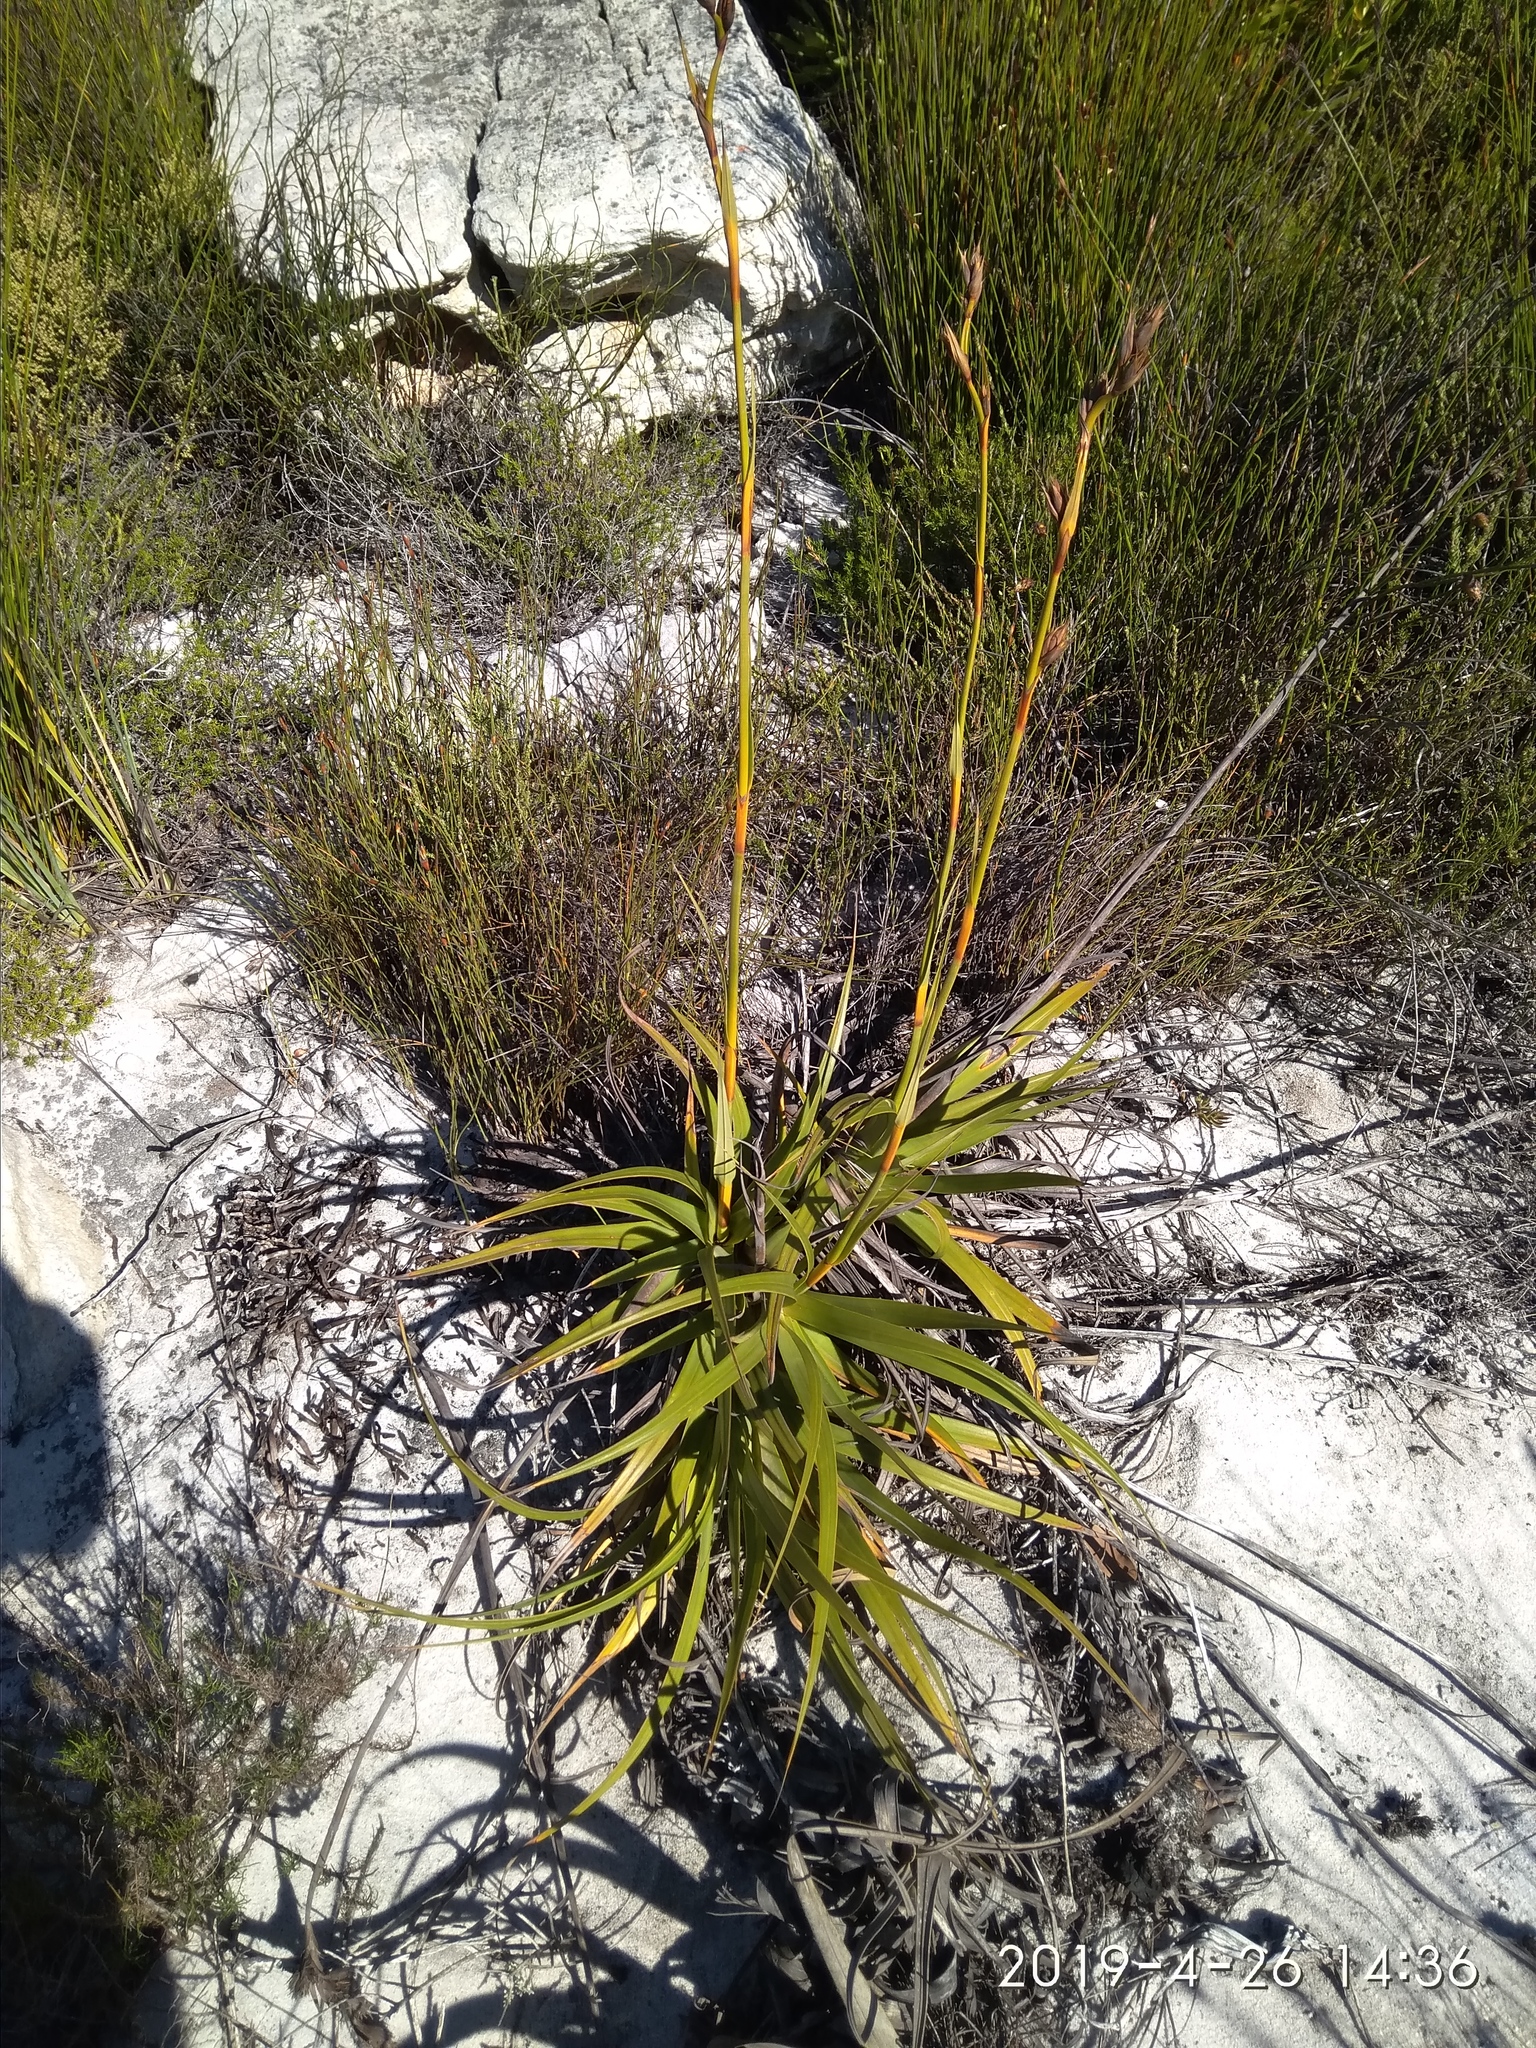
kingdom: Plantae
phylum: Tracheophyta
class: Liliopsida
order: Poales
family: Cyperaceae
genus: Tetraria
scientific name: Tetraria thermalis
